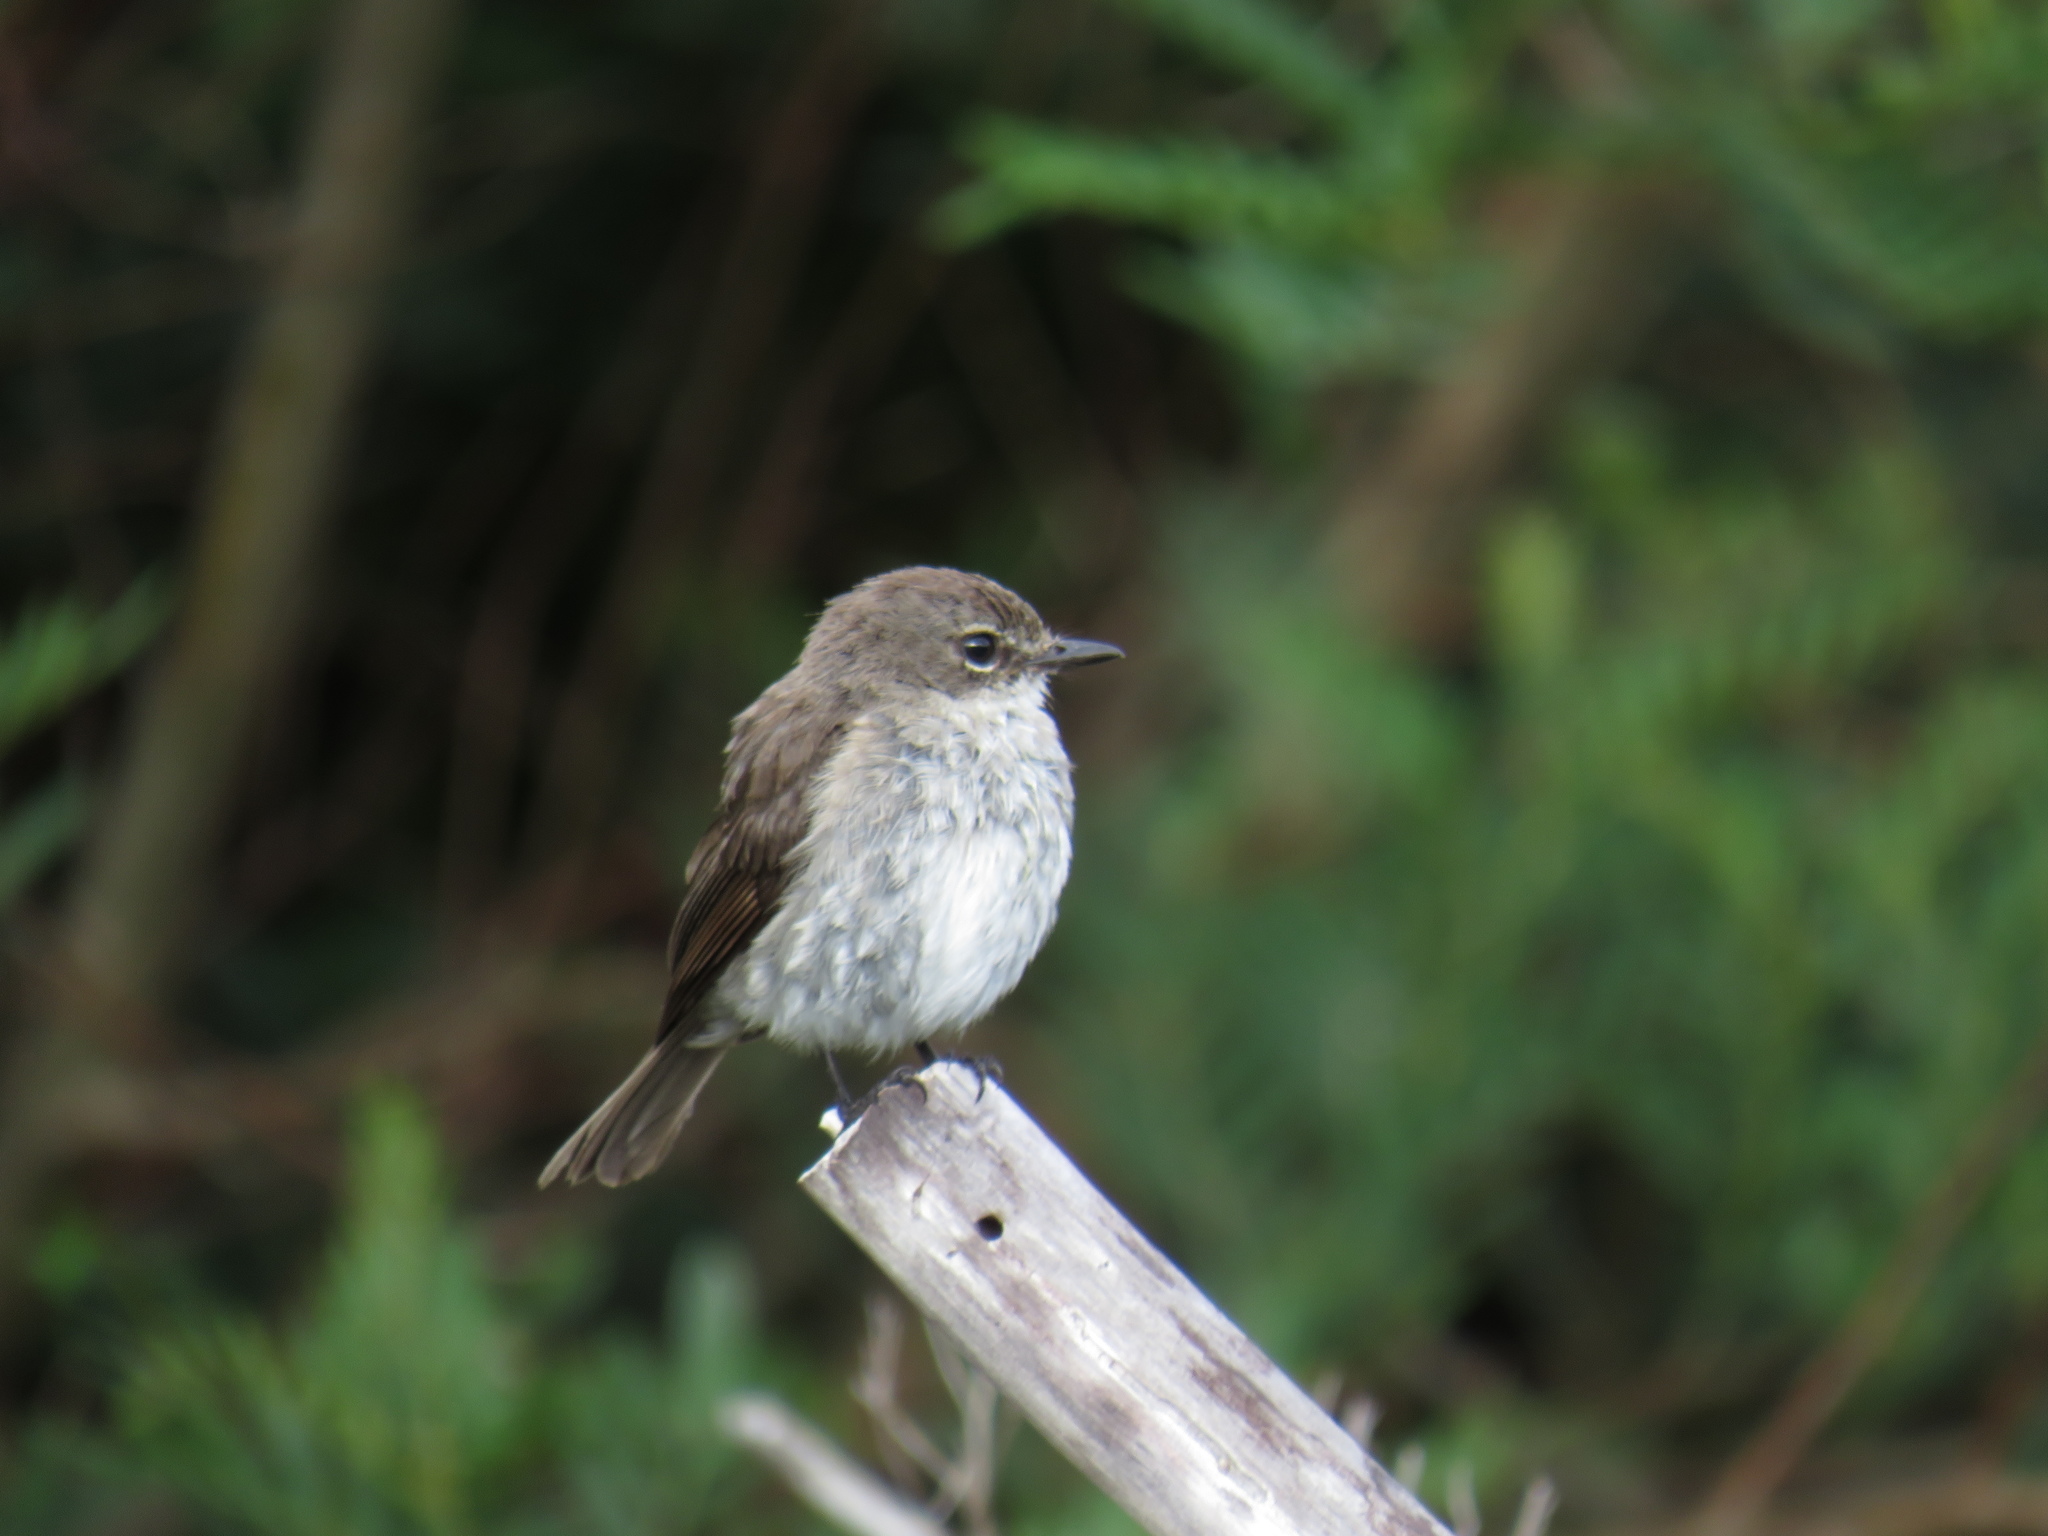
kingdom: Animalia
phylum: Chordata
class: Aves
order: Passeriformes
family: Muscicapidae
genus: Muscicapa
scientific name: Muscicapa adusta
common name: African dusky flycatcher
